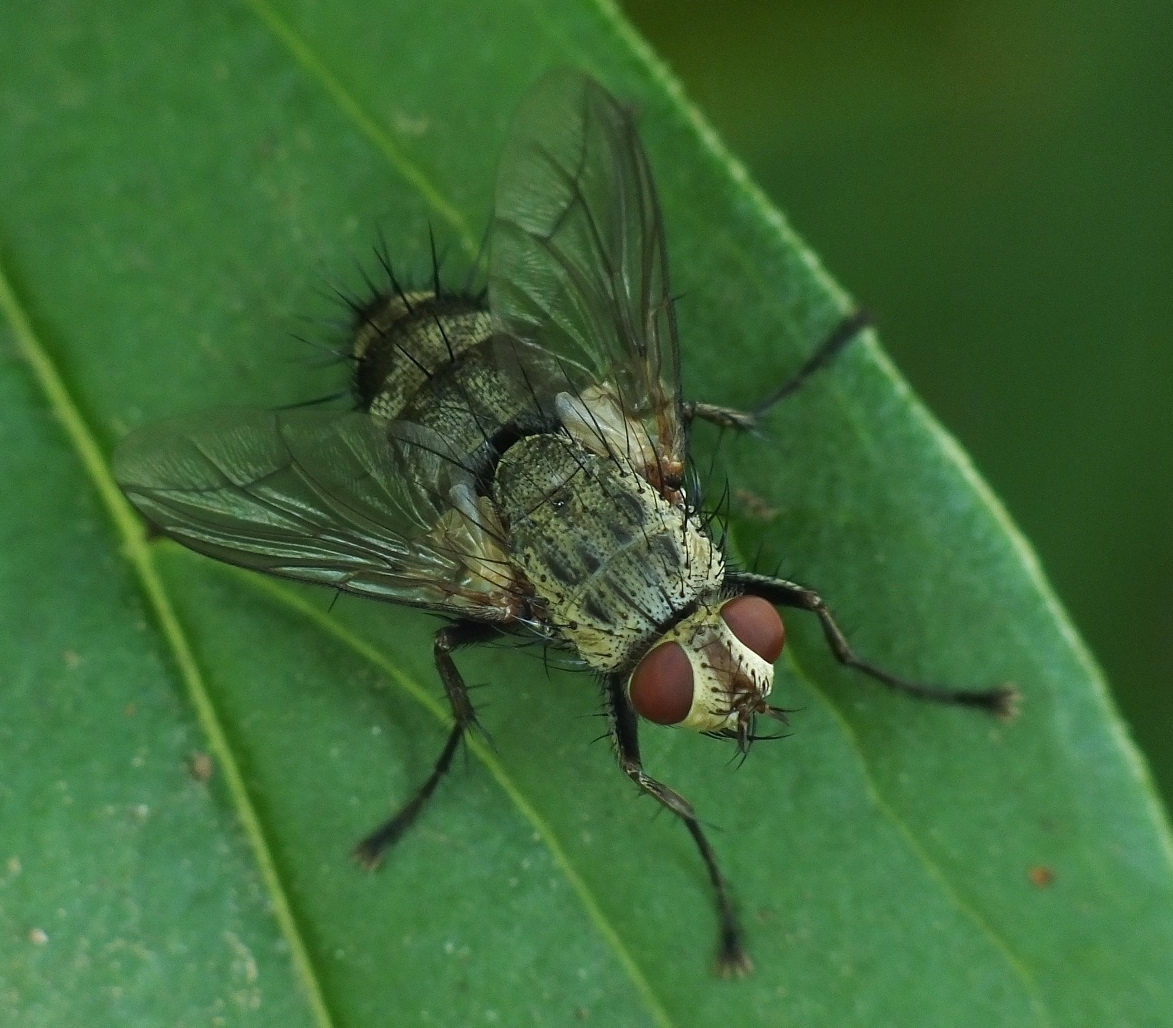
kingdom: Animalia
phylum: Arthropoda
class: Insecta
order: Diptera
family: Tachinidae
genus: Microphthalma
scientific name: Microphthalma europaea
